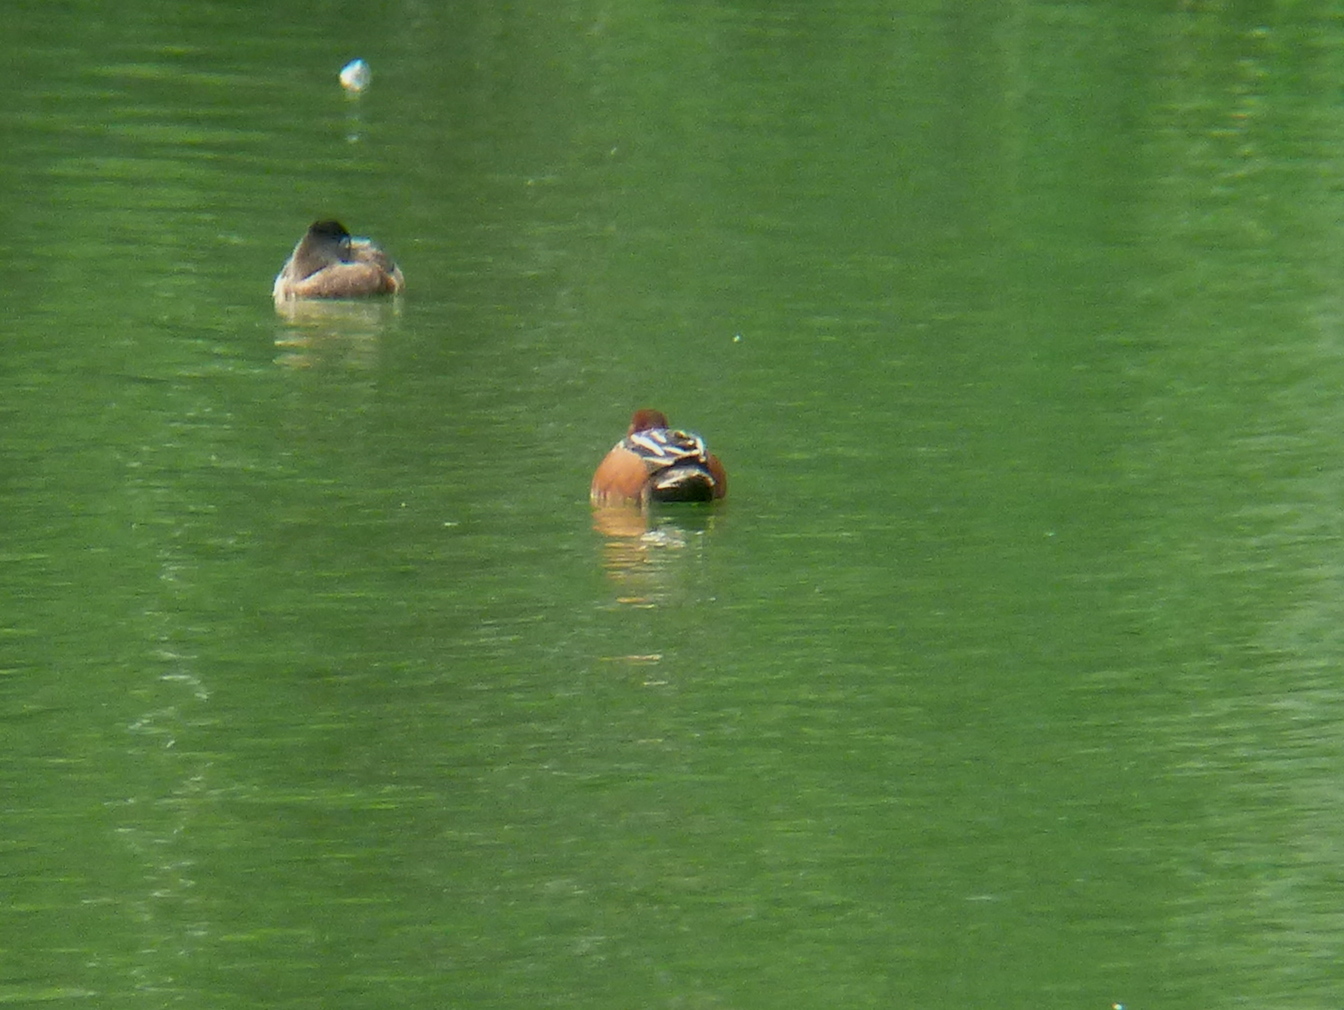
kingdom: Animalia
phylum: Chordata
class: Aves
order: Anseriformes
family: Anatidae
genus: Spatula
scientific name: Spatula cyanoptera
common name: Cinnamon teal
